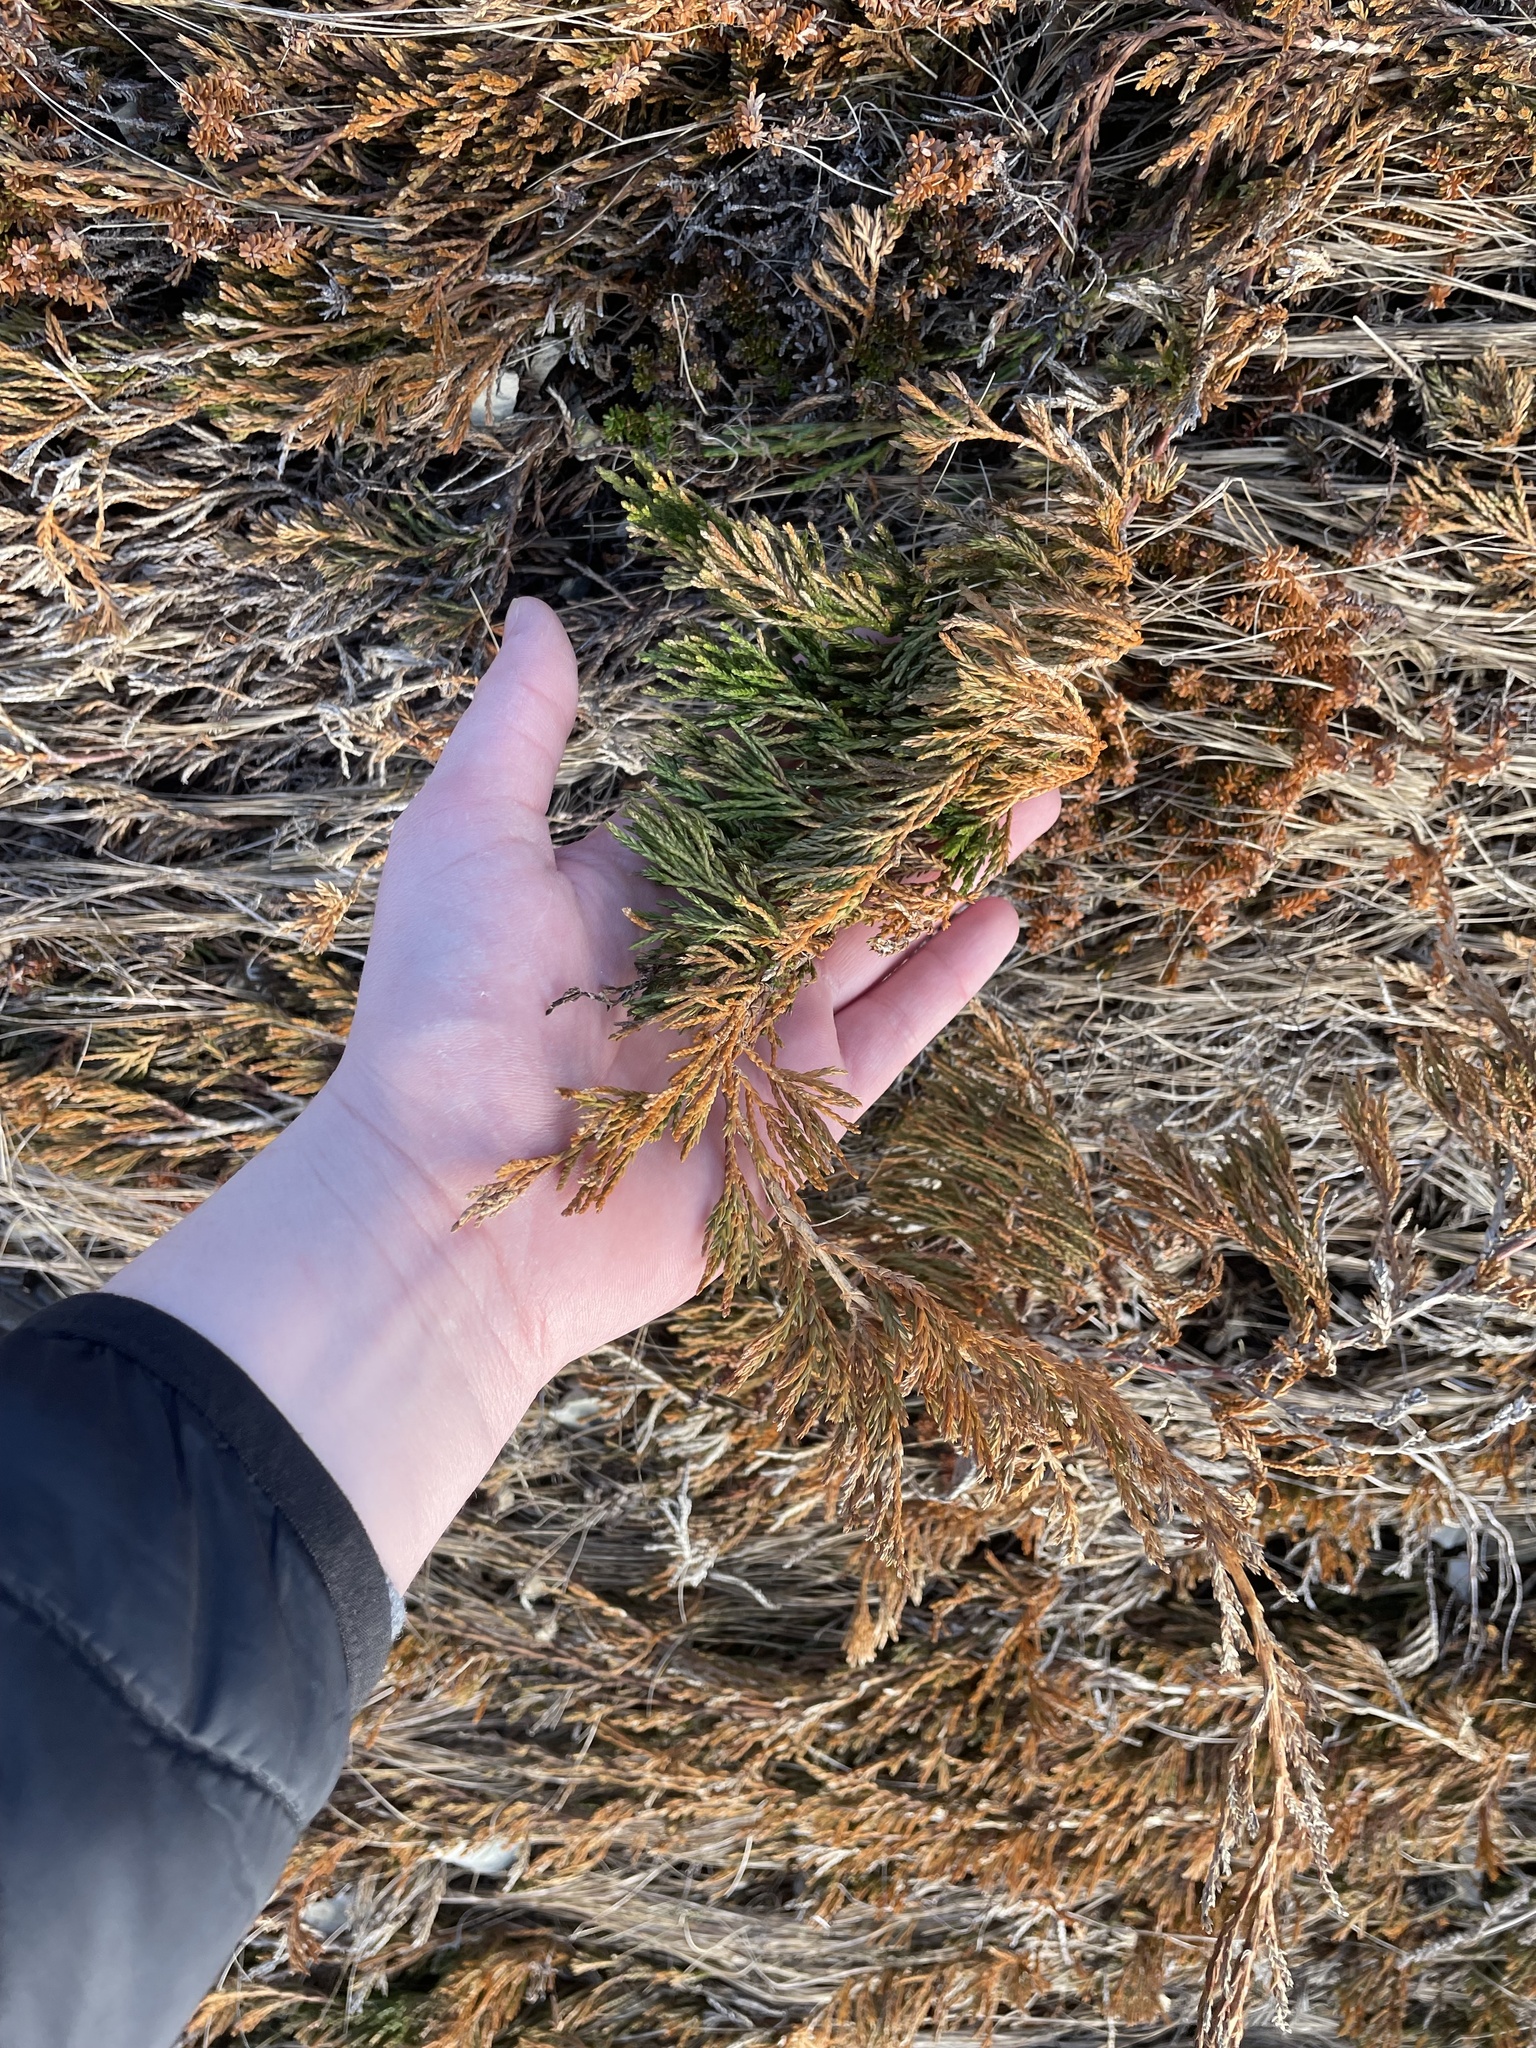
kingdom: Plantae
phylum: Tracheophyta
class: Pinopsida
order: Pinales
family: Cupressaceae
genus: Juniperus
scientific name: Juniperus horizontalis
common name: Creeping juniper
